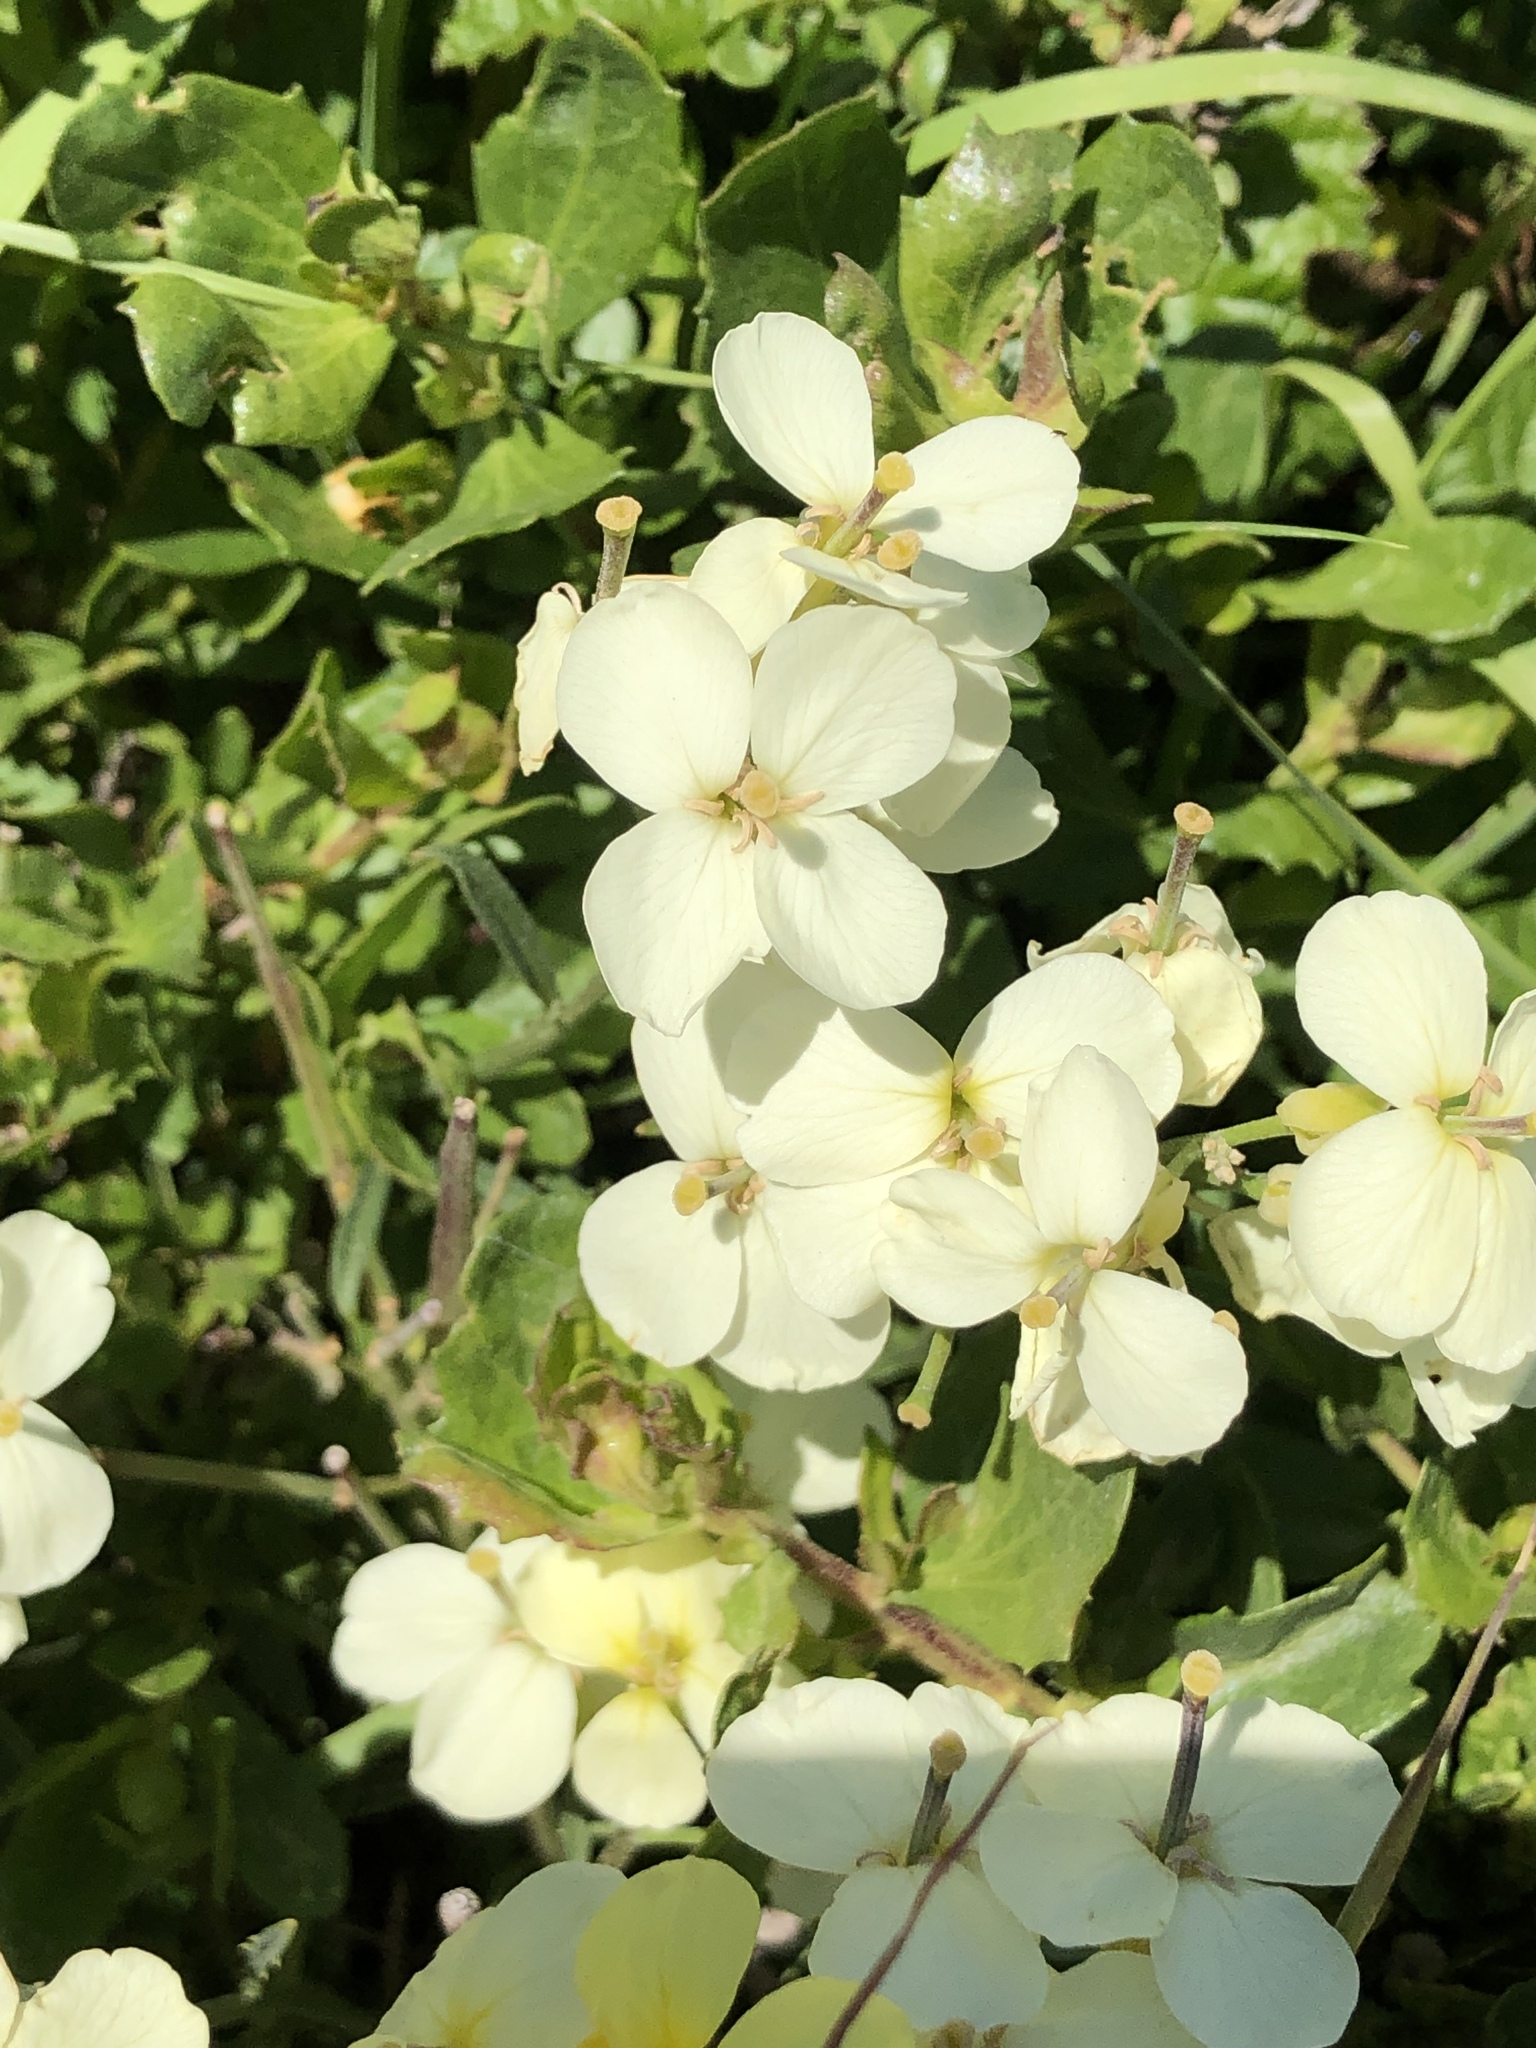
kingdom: Plantae
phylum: Tracheophyta
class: Magnoliopsida
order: Brassicales
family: Brassicaceae
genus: Erysimum
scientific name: Erysimum franciscanum
